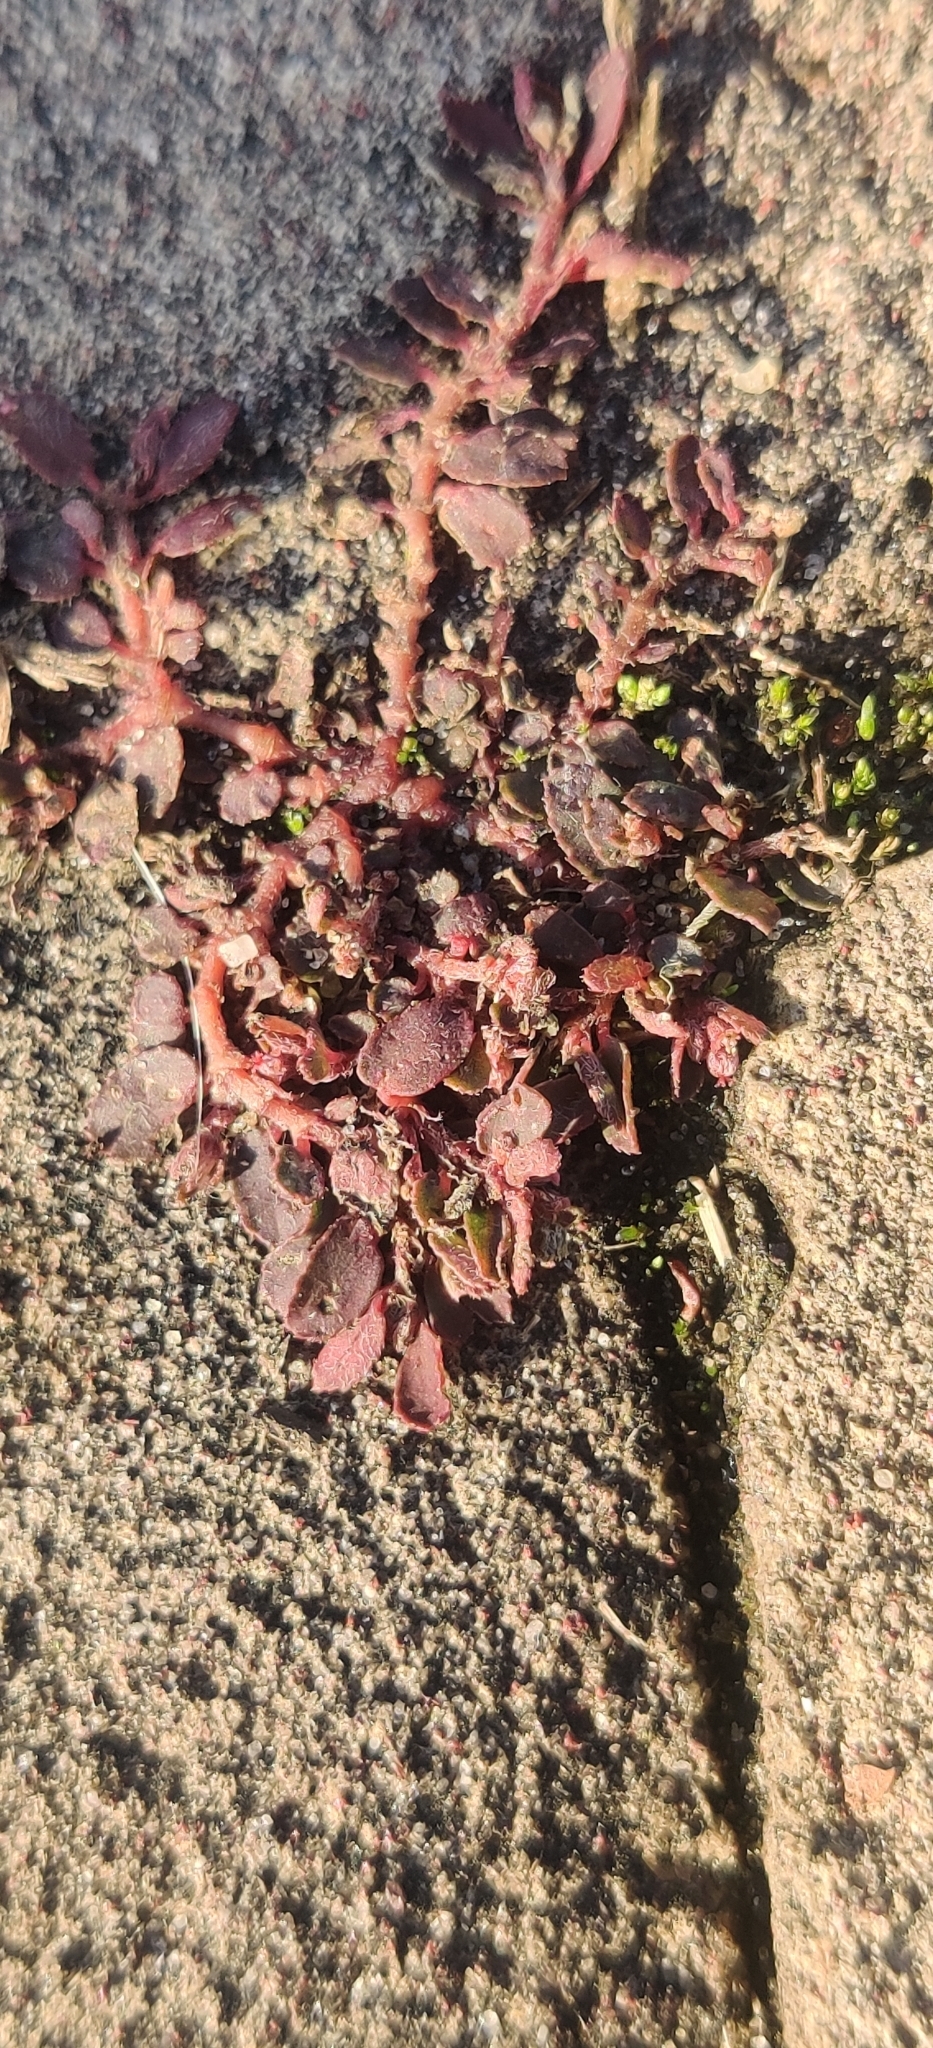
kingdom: Plantae
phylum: Tracheophyta
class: Magnoliopsida
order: Malpighiales
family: Euphorbiaceae
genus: Euphorbia
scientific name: Euphorbia maculata
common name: Spotted spurge
